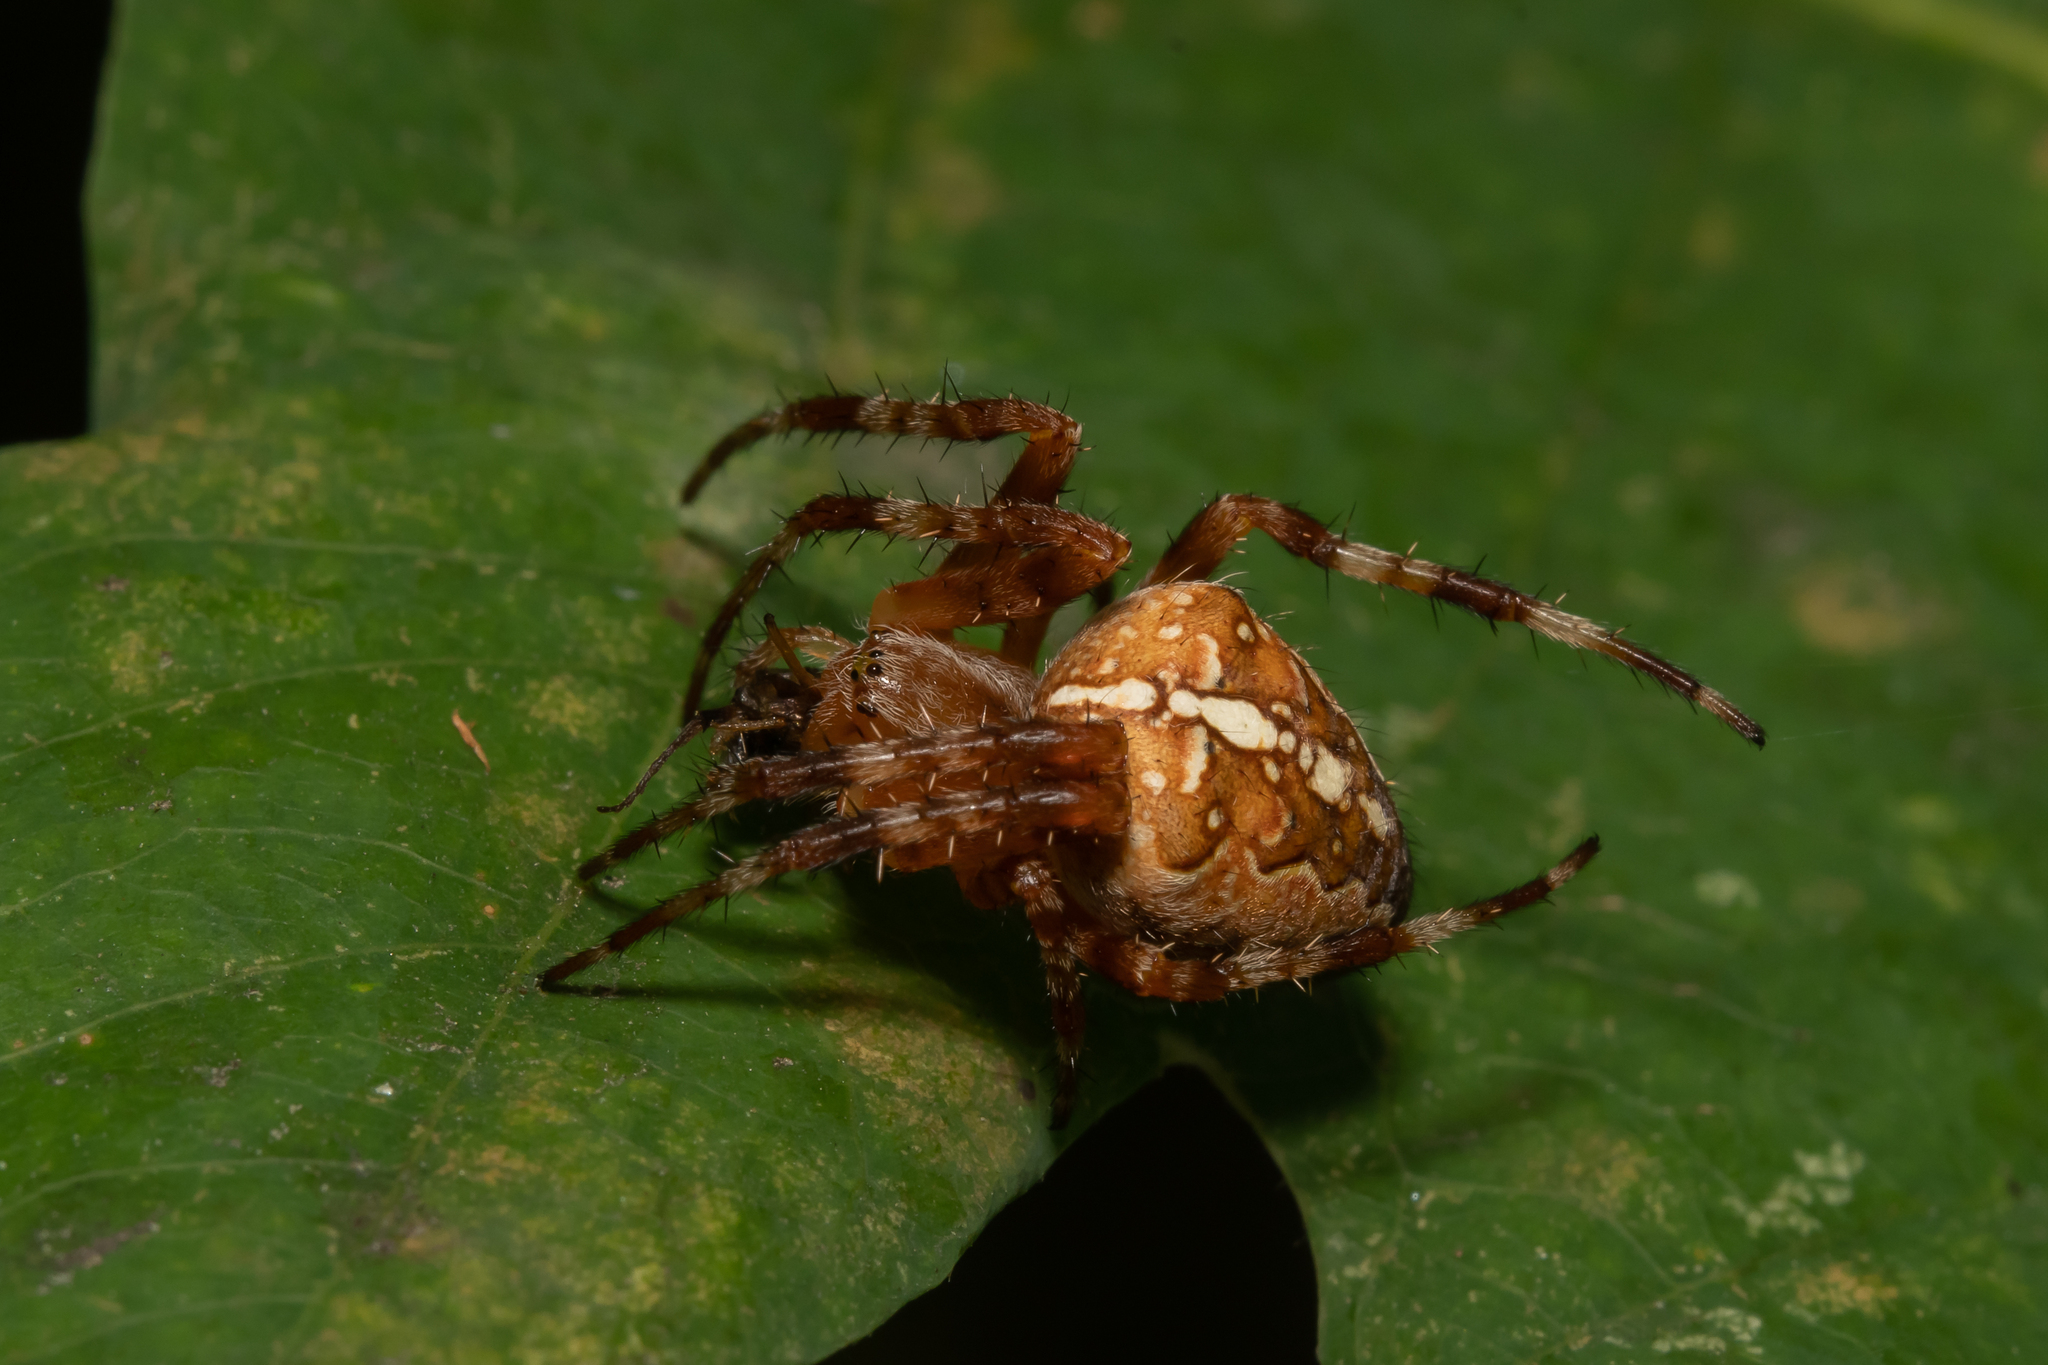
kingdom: Animalia
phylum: Arthropoda
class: Arachnida
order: Araneae
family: Araneidae
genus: Araneus
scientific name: Araneus diadematus
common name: Cross orbweaver
